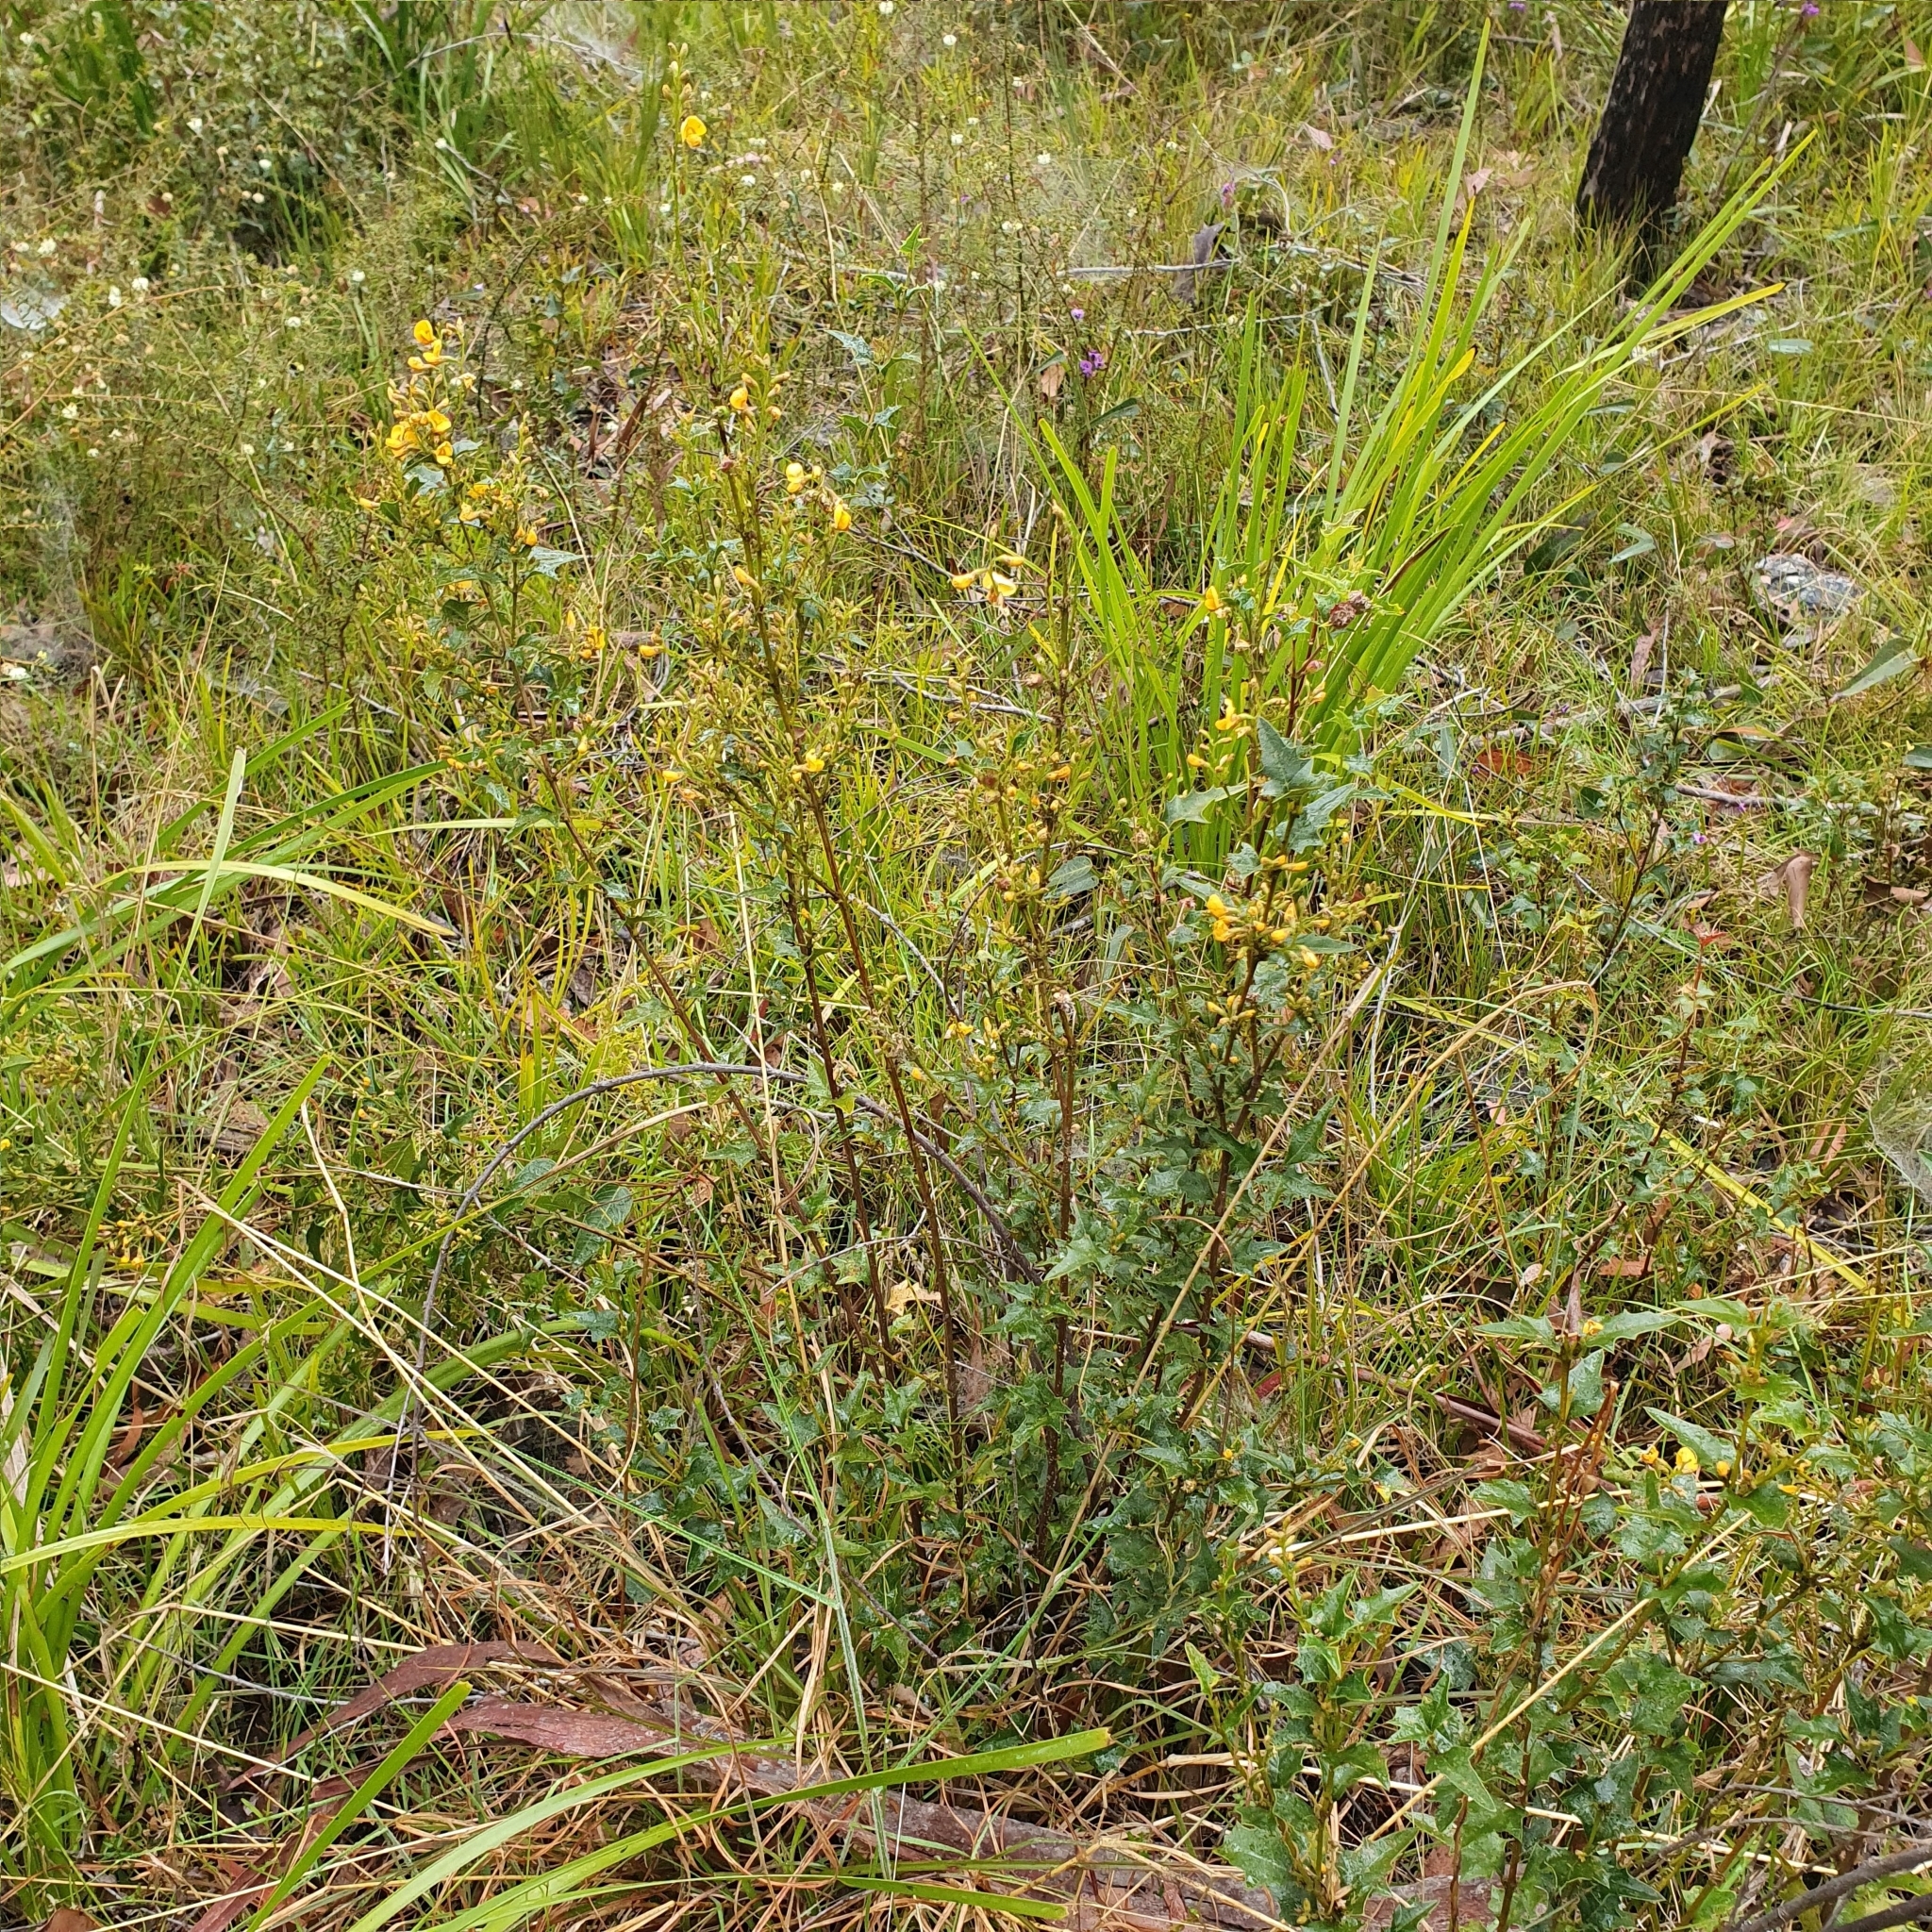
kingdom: Plantae
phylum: Tracheophyta
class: Magnoliopsida
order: Fabales
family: Fabaceae
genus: Podolobium
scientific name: Podolobium ilicifolium
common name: Native holly
